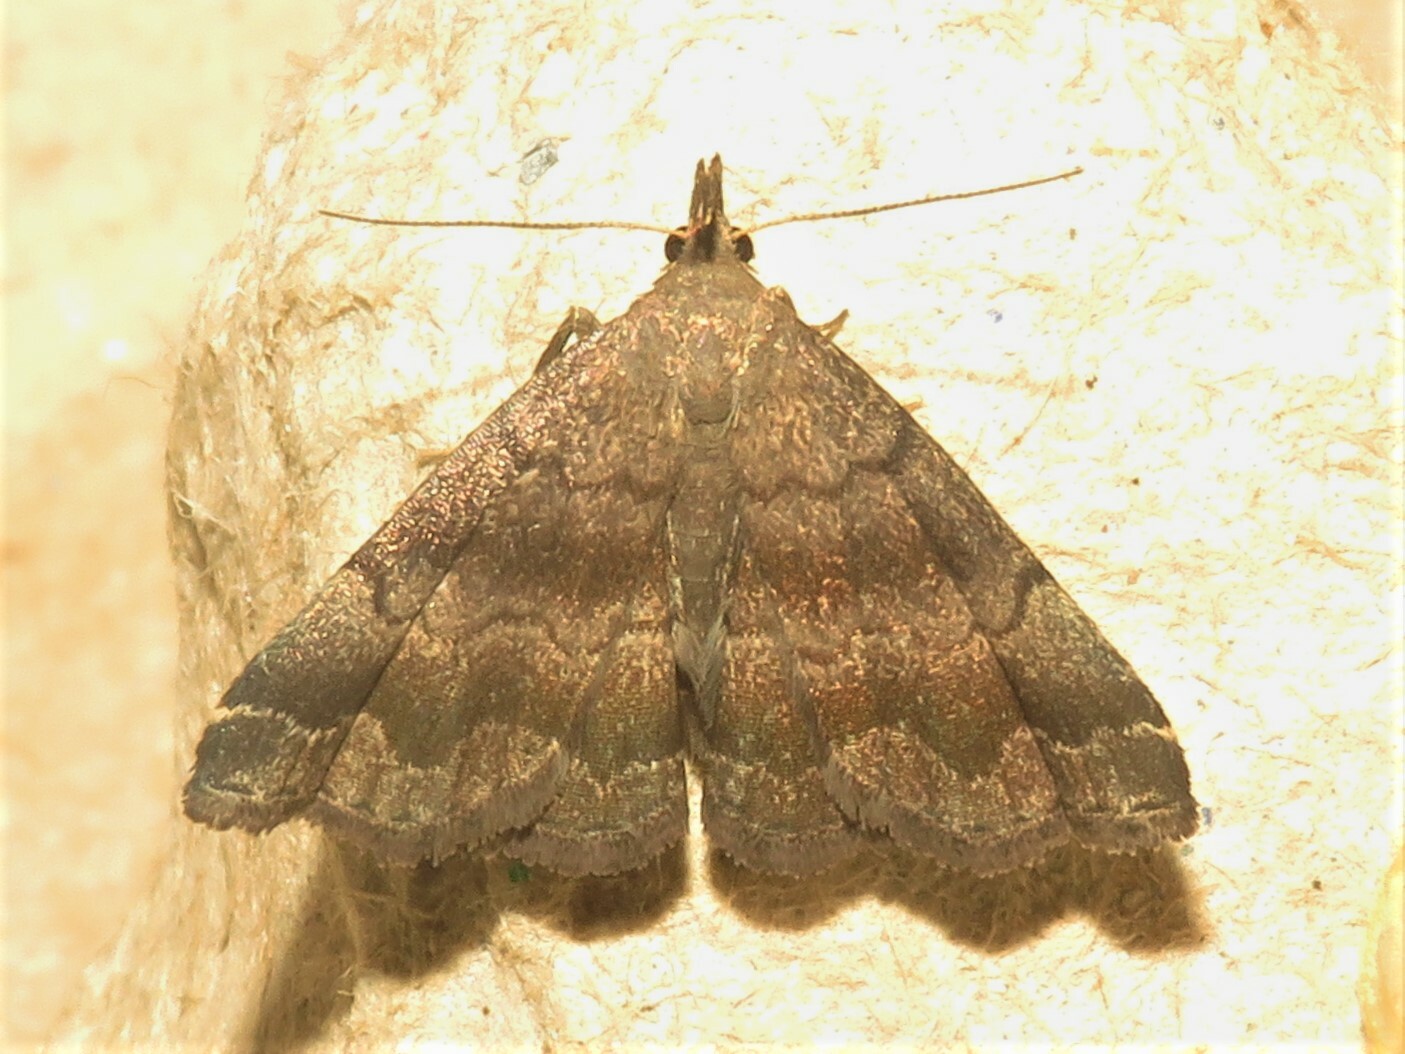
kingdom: Animalia
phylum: Arthropoda
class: Insecta
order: Lepidoptera
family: Erebidae
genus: Phalaenostola
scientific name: Phalaenostola larentioides
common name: Black-banded owlet
